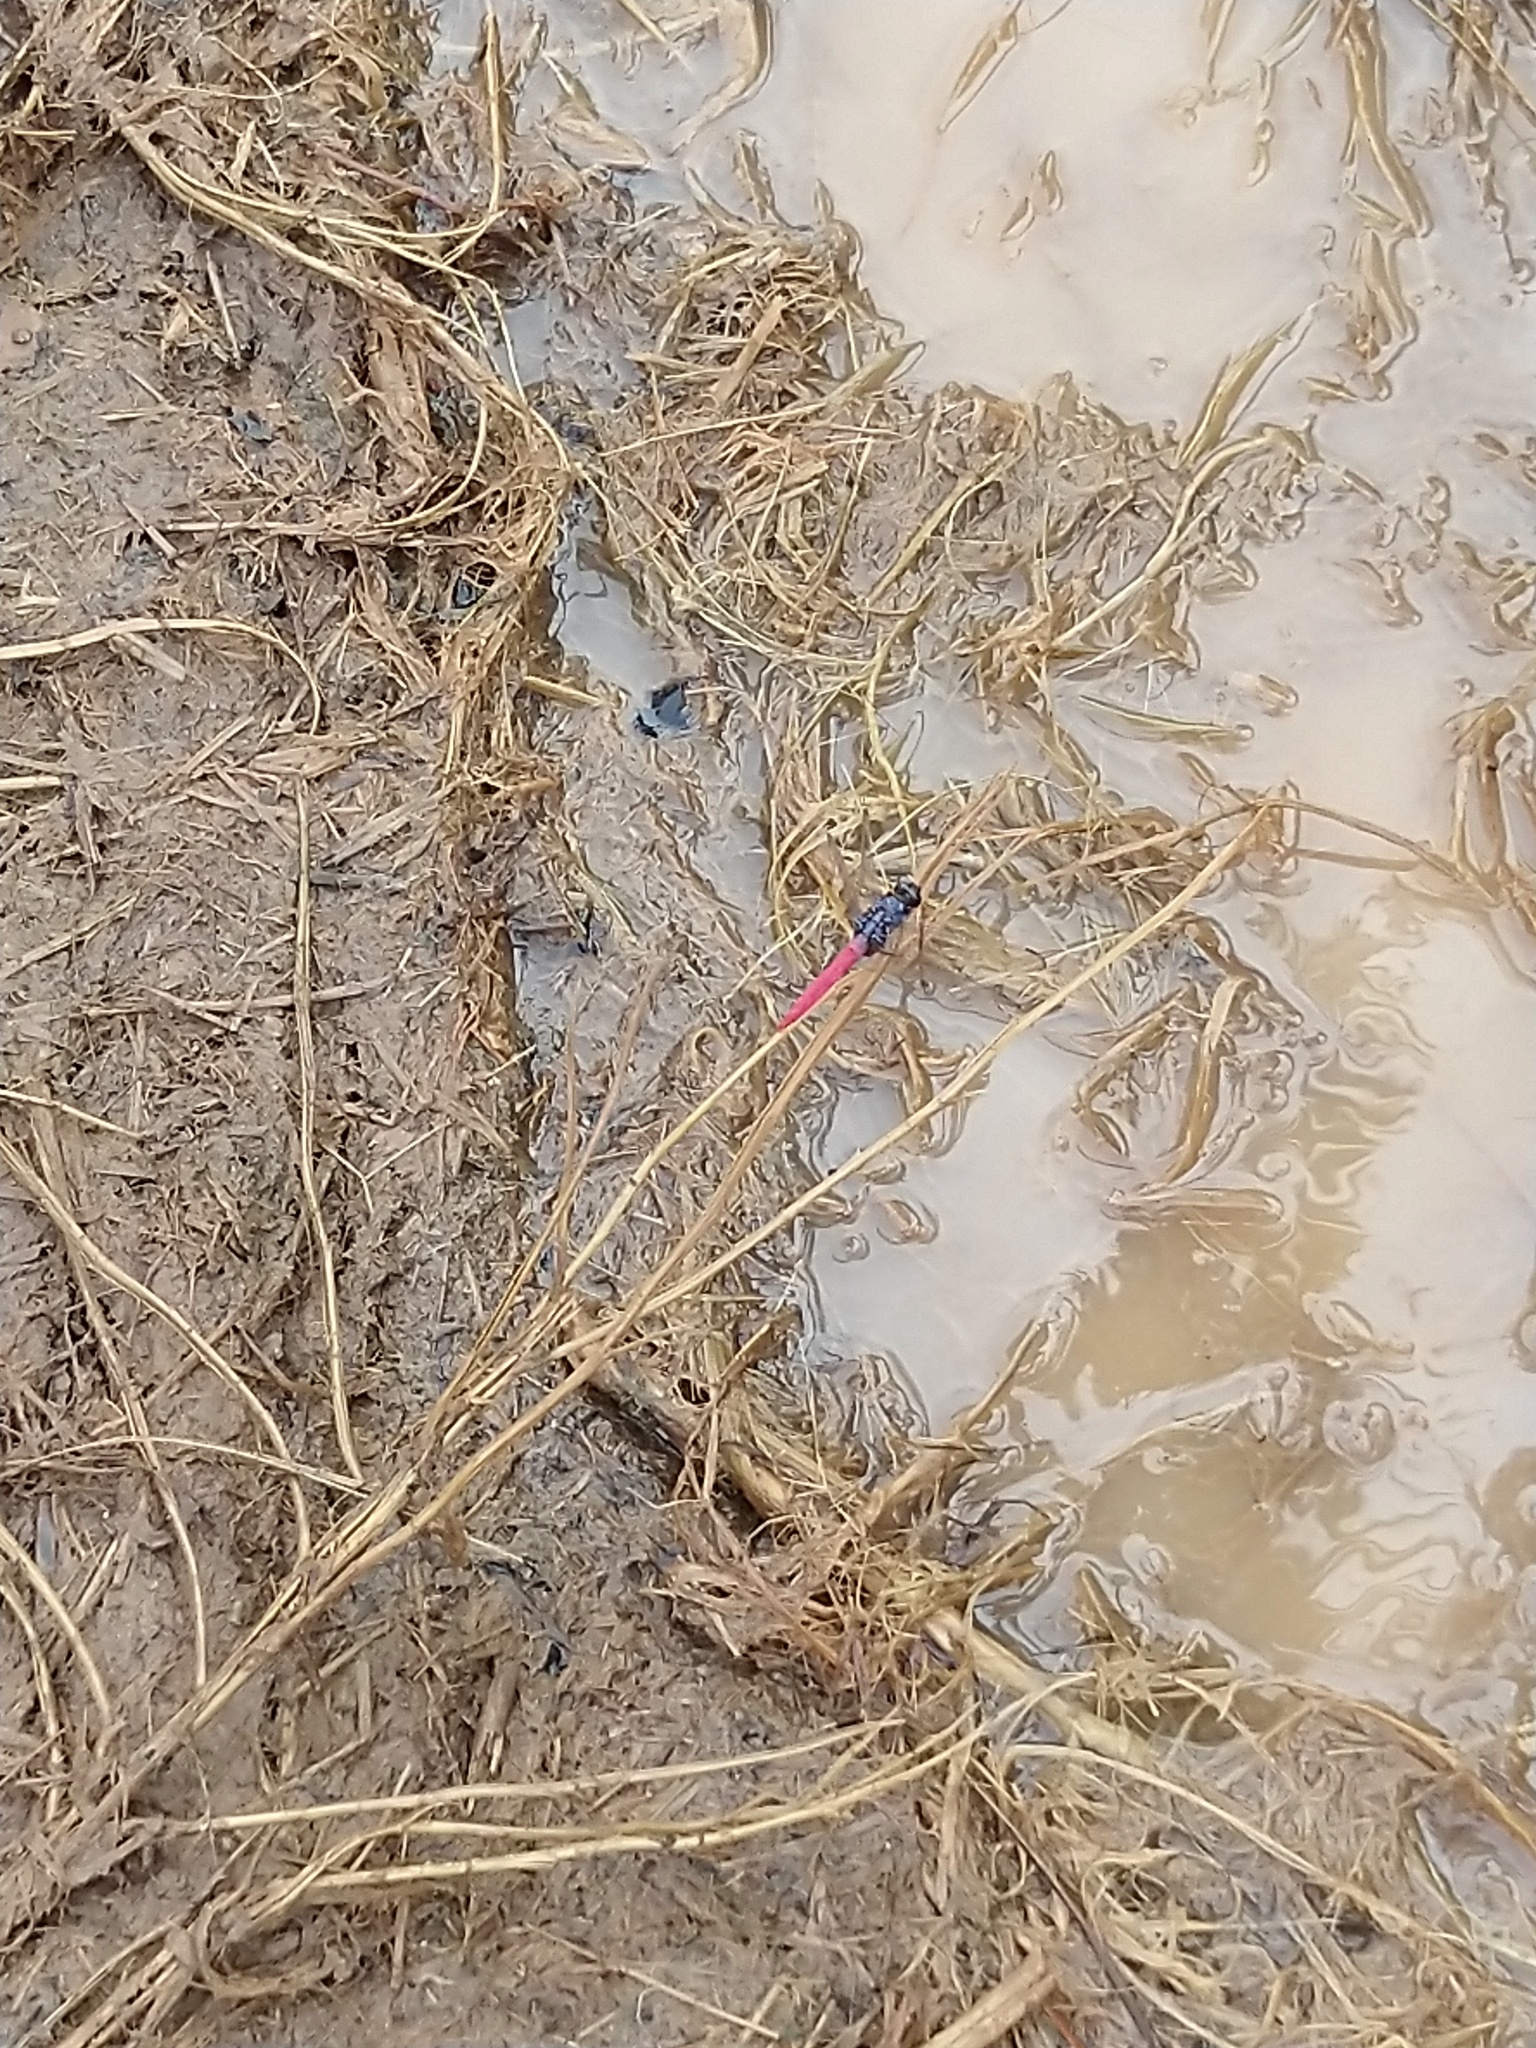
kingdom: Animalia
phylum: Arthropoda
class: Insecta
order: Odonata
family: Libellulidae
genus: Orthetrum
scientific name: Orthetrum pruinosum
